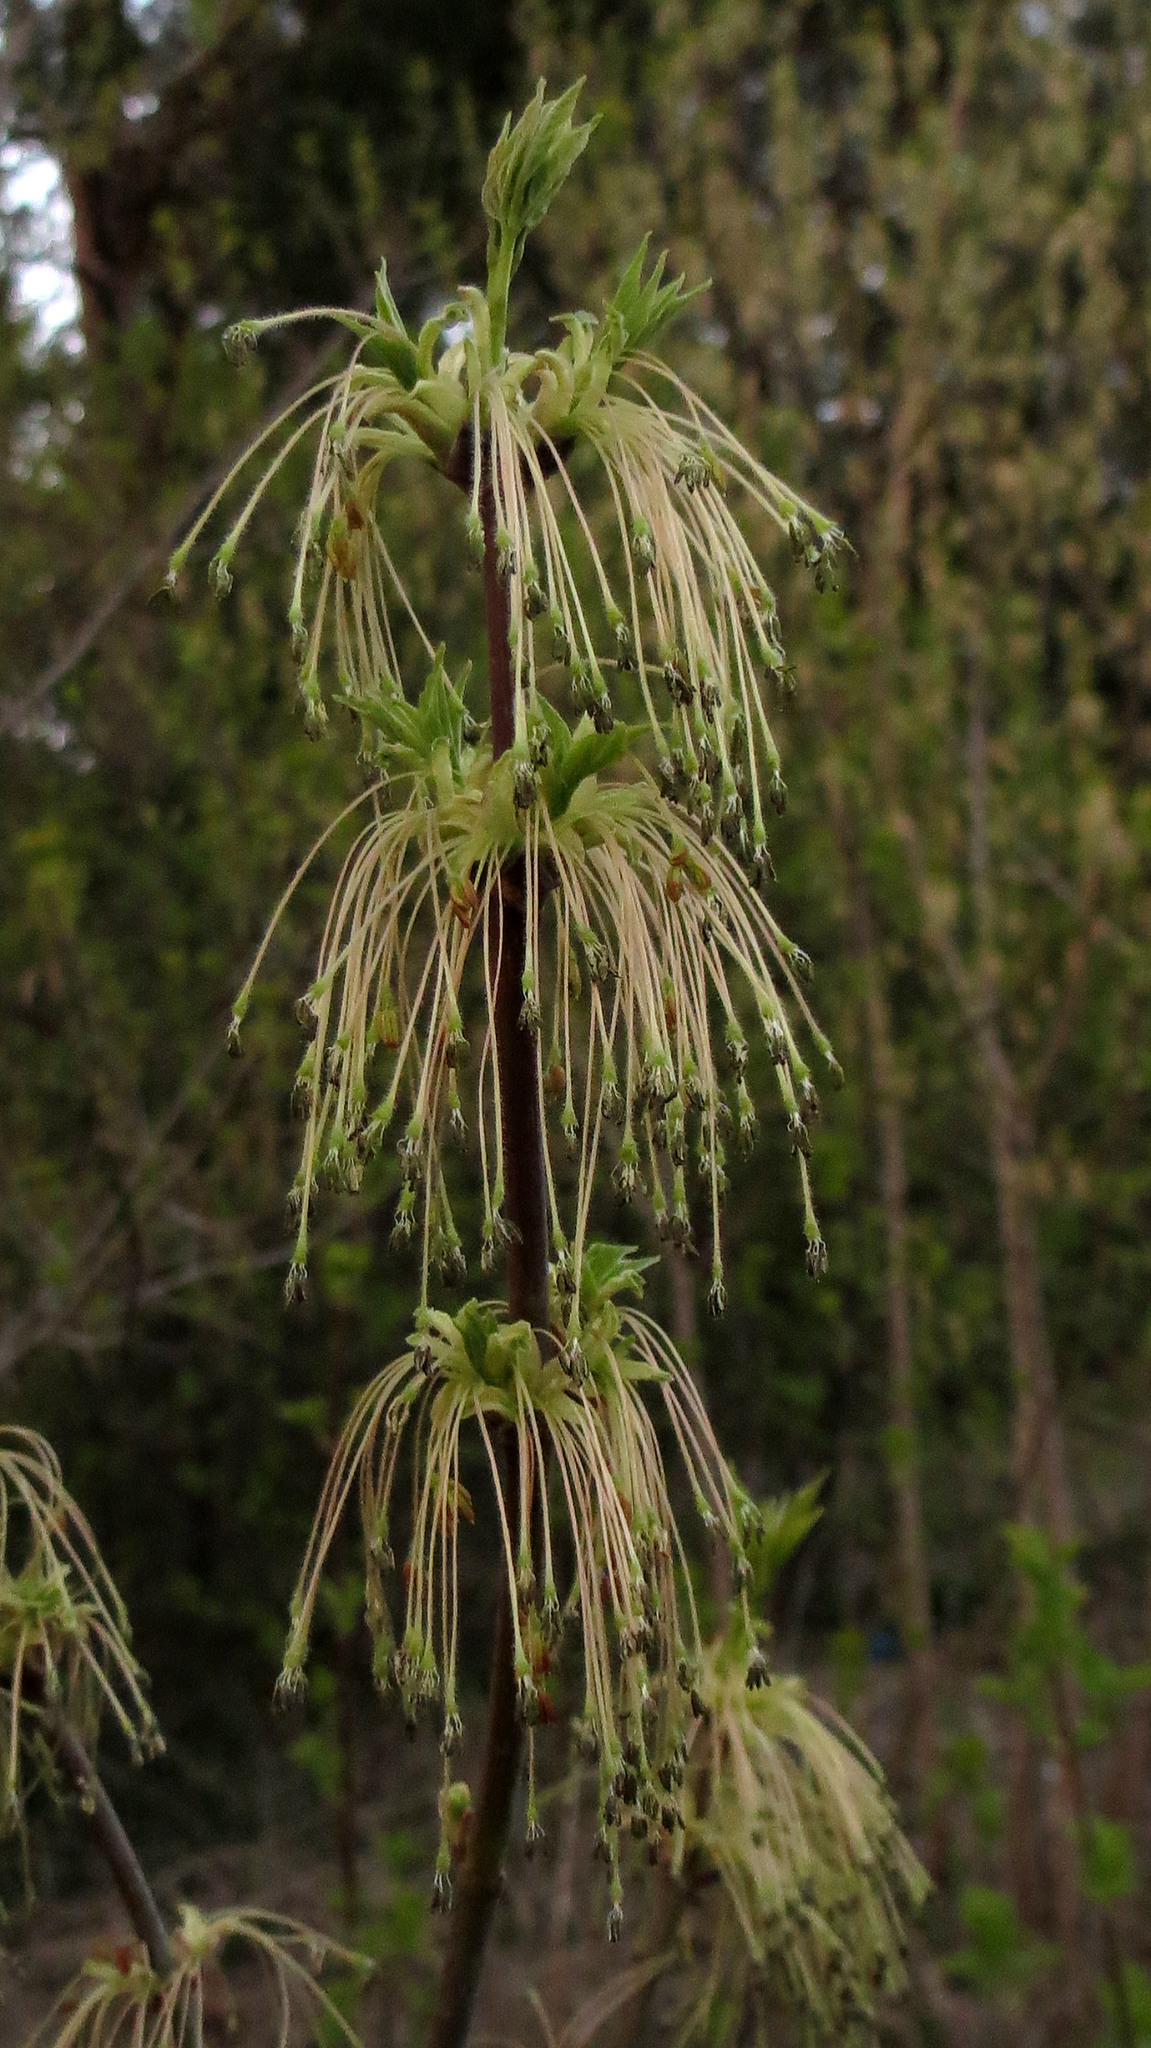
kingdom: Plantae
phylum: Tracheophyta
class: Magnoliopsida
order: Sapindales
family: Sapindaceae
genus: Acer
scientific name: Acer negundo
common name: Ashleaf maple
